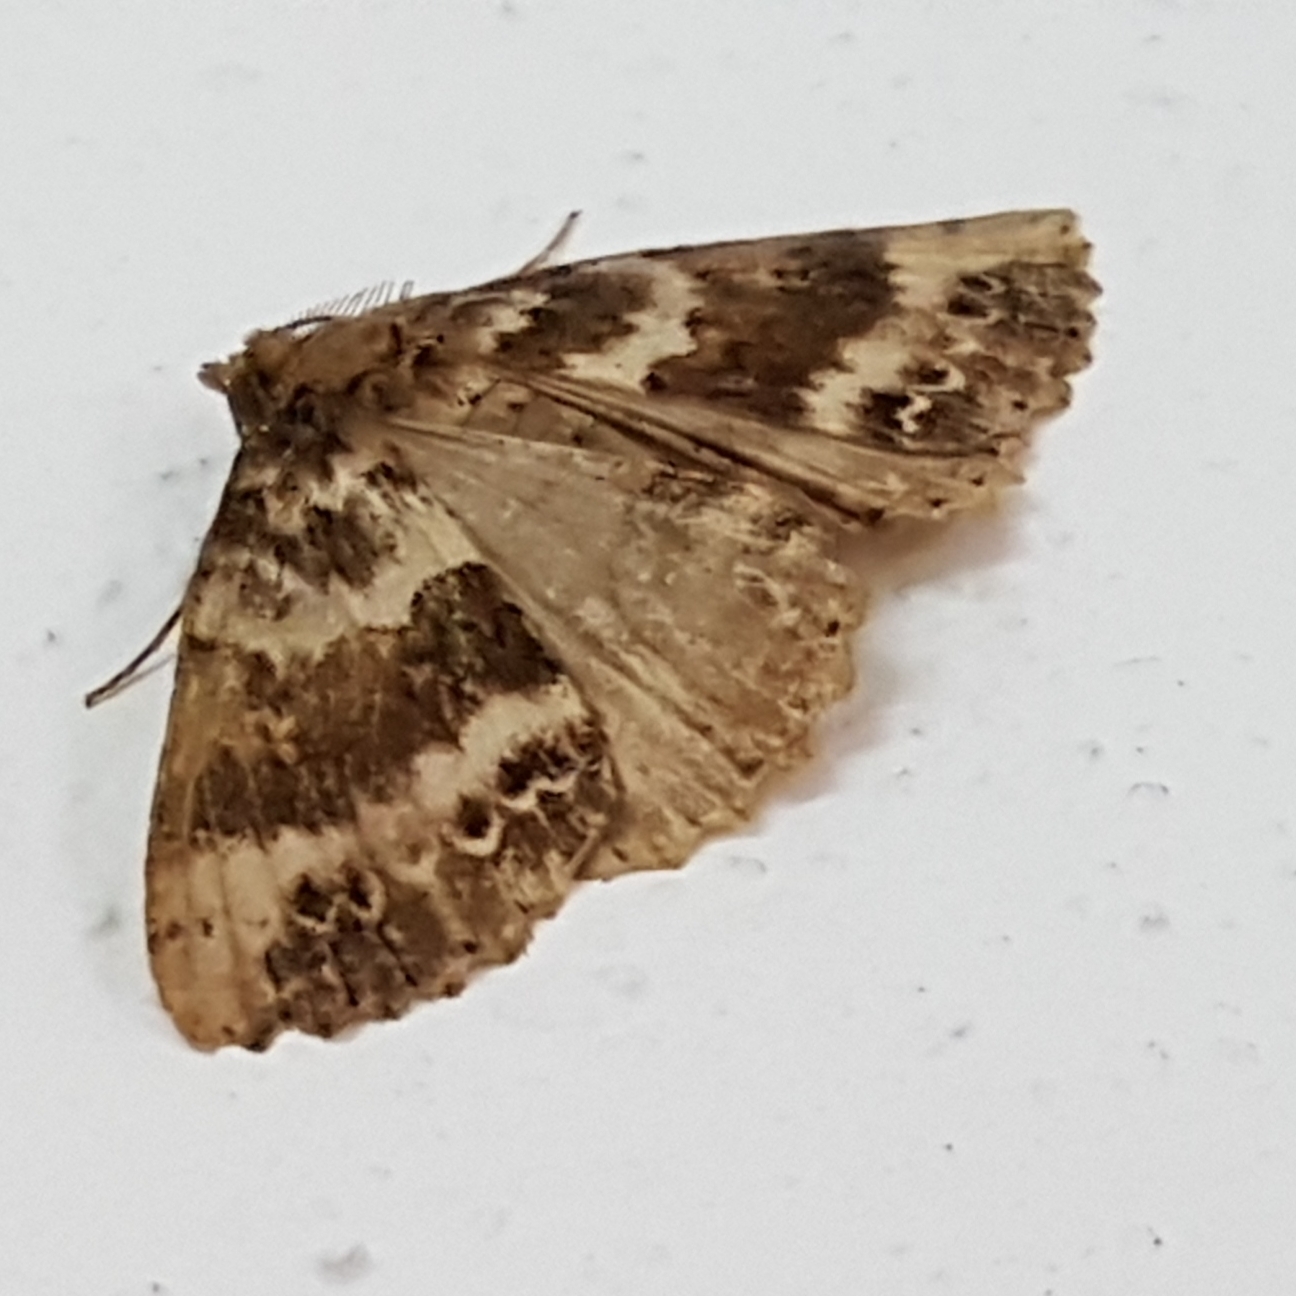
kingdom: Animalia
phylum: Arthropoda
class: Insecta
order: Lepidoptera
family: Geometridae
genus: Ascotis
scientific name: Ascotis fortunata
